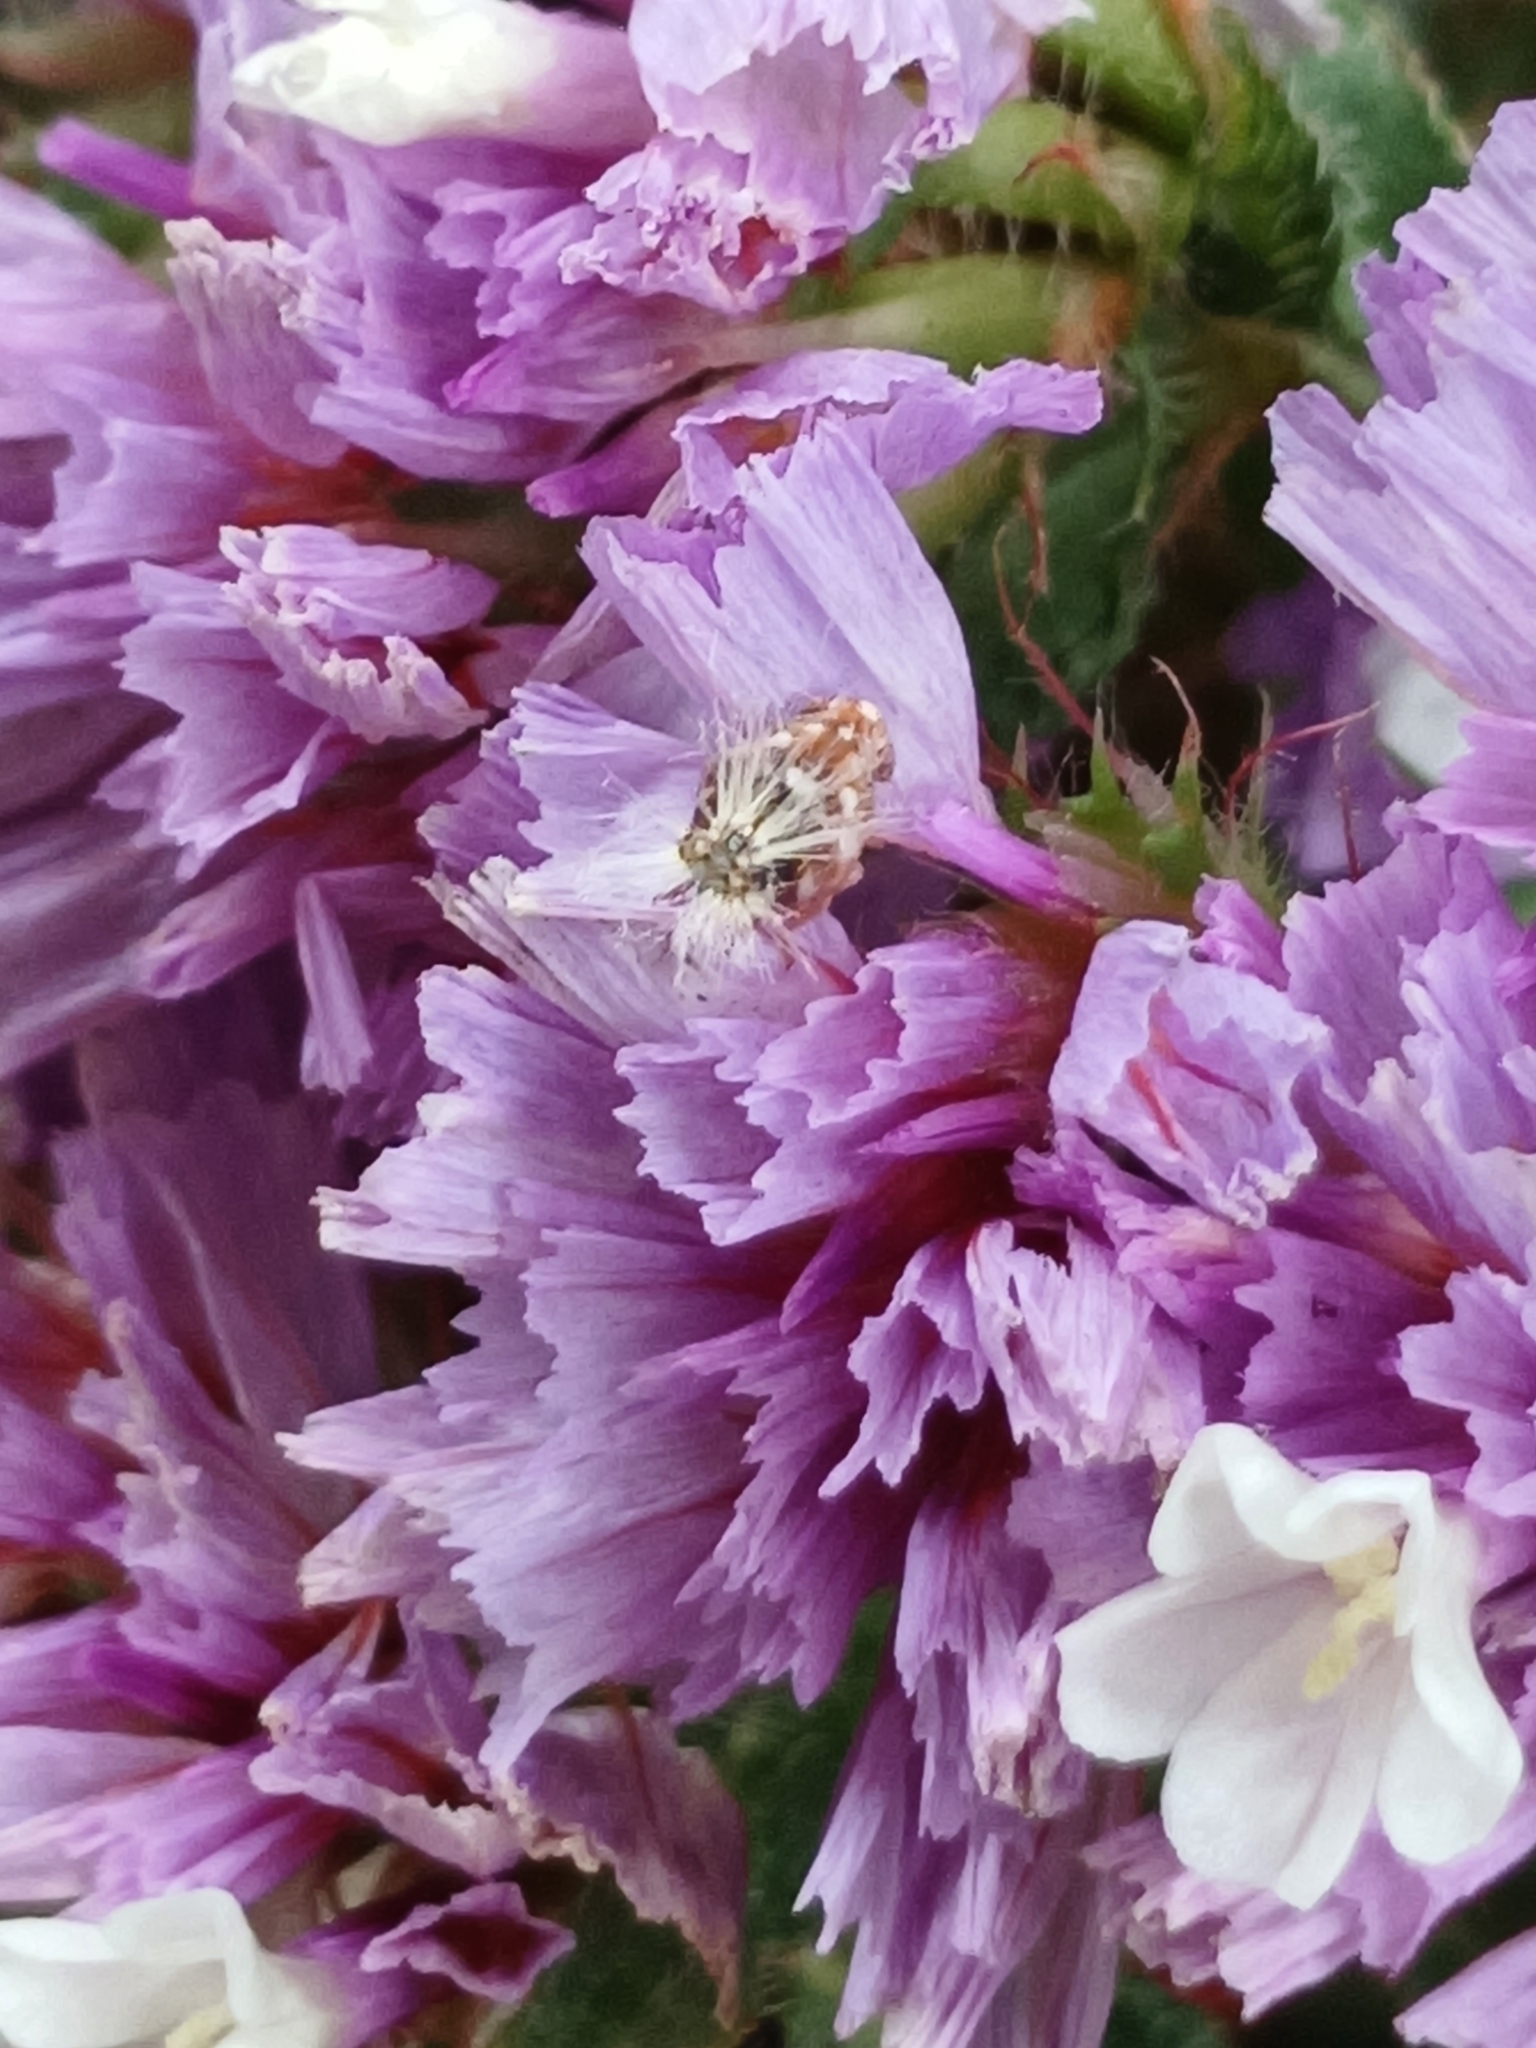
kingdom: Animalia
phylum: Arthropoda
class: Insecta
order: Hemiptera
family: Ricaniidae
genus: Scolypopa
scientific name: Scolypopa australis
